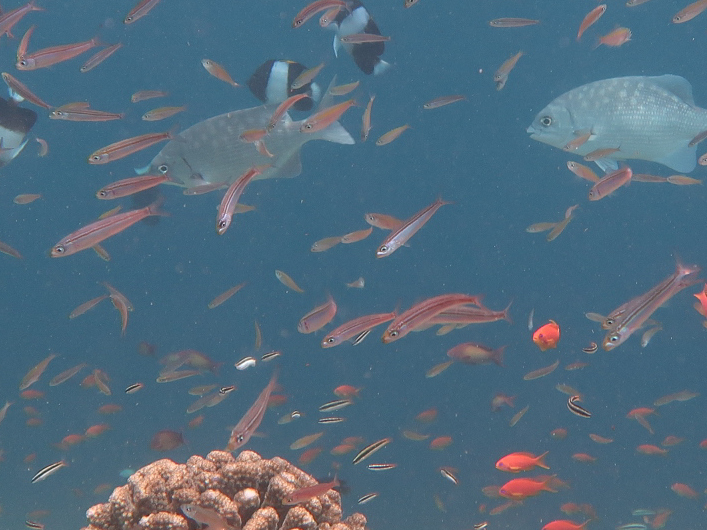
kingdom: Animalia
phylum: Chordata
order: Perciformes
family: Caesionidae
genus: Gymnocaesio
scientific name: Gymnocaesio gymnoptera
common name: Slender fusilier
